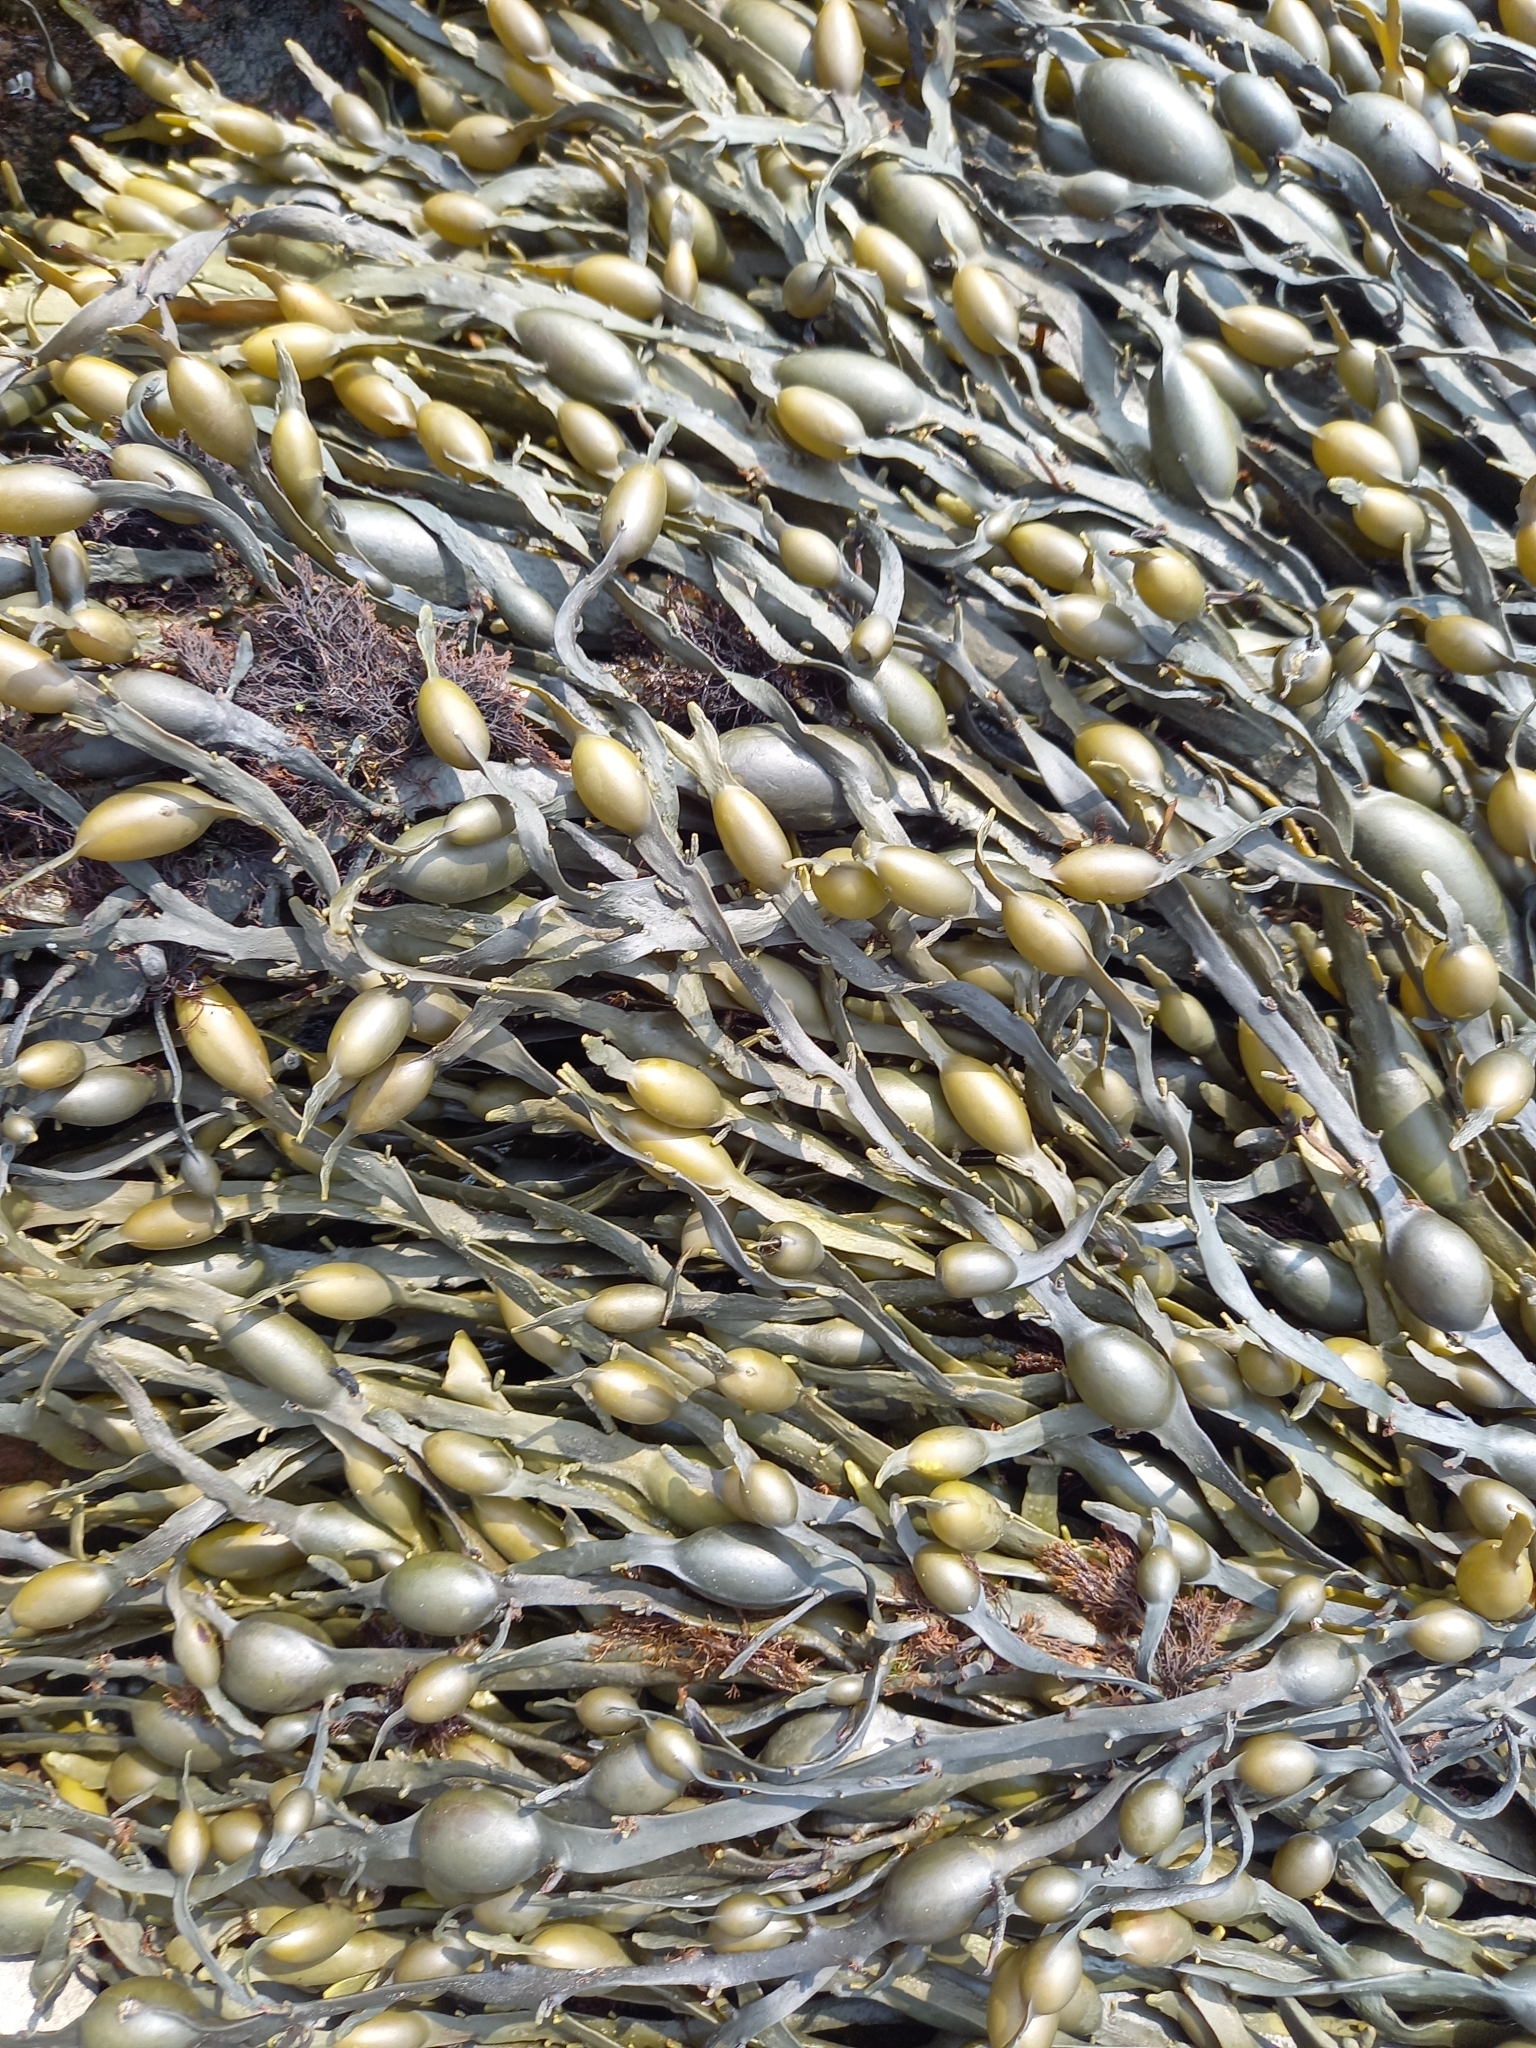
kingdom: Chromista
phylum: Ochrophyta
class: Phaeophyceae
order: Fucales
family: Fucaceae
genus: Ascophyllum
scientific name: Ascophyllum nodosum
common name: Knotted wrack
